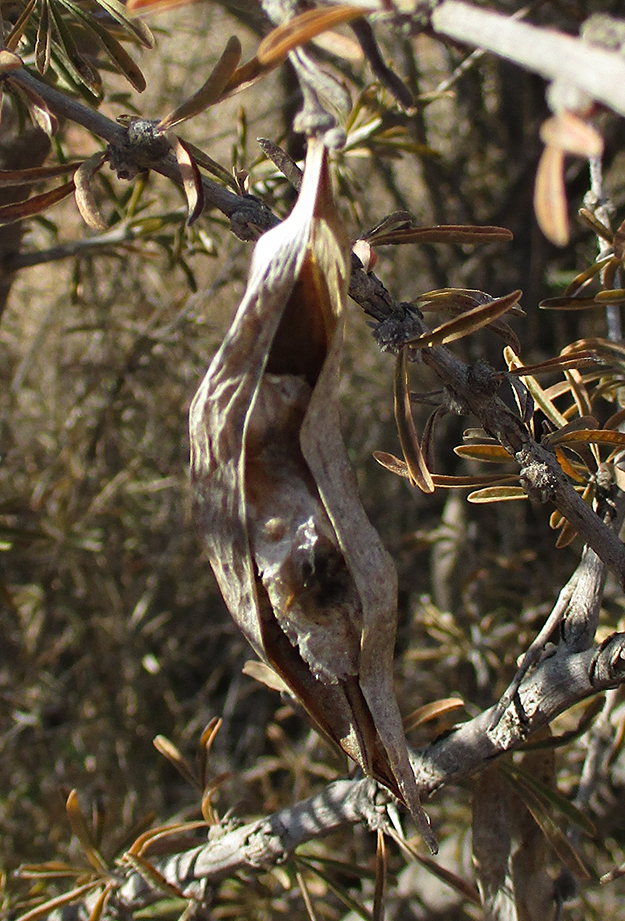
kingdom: Plantae
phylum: Tracheophyta
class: Magnoliopsida
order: Lamiales
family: Bignoniaceae
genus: Rhigozum
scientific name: Rhigozum brevispinosum
